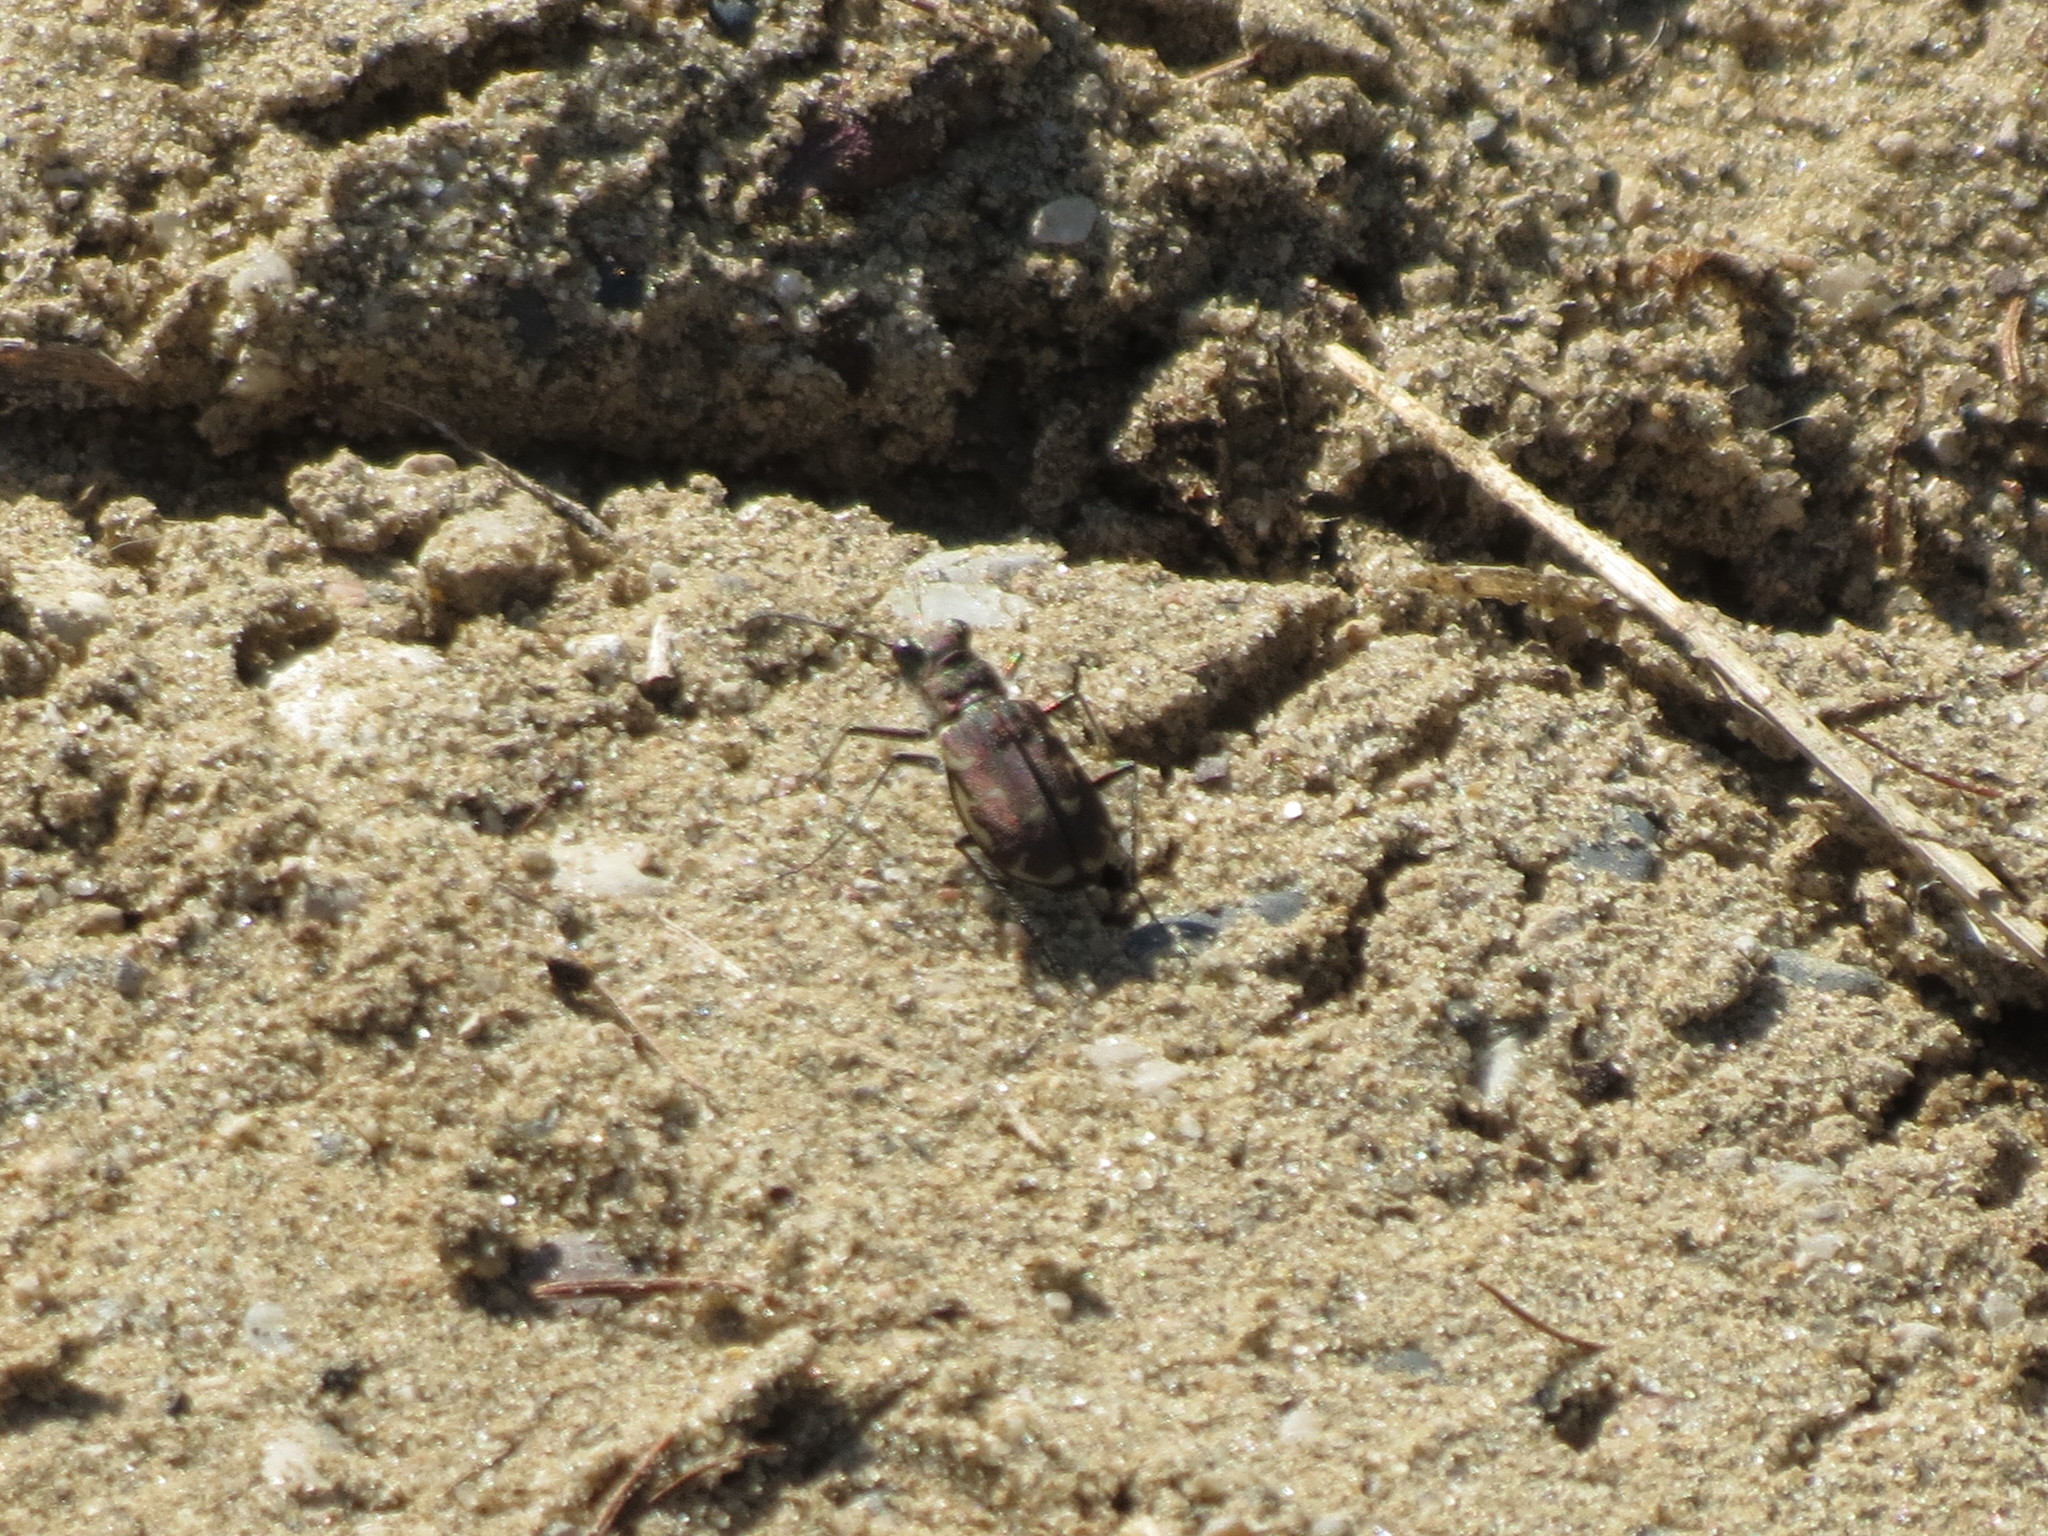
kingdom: Animalia
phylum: Arthropoda
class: Insecta
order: Coleoptera
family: Carabidae
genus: Cicindela
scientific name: Cicindela repanda
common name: Bronzed tiger beetle
